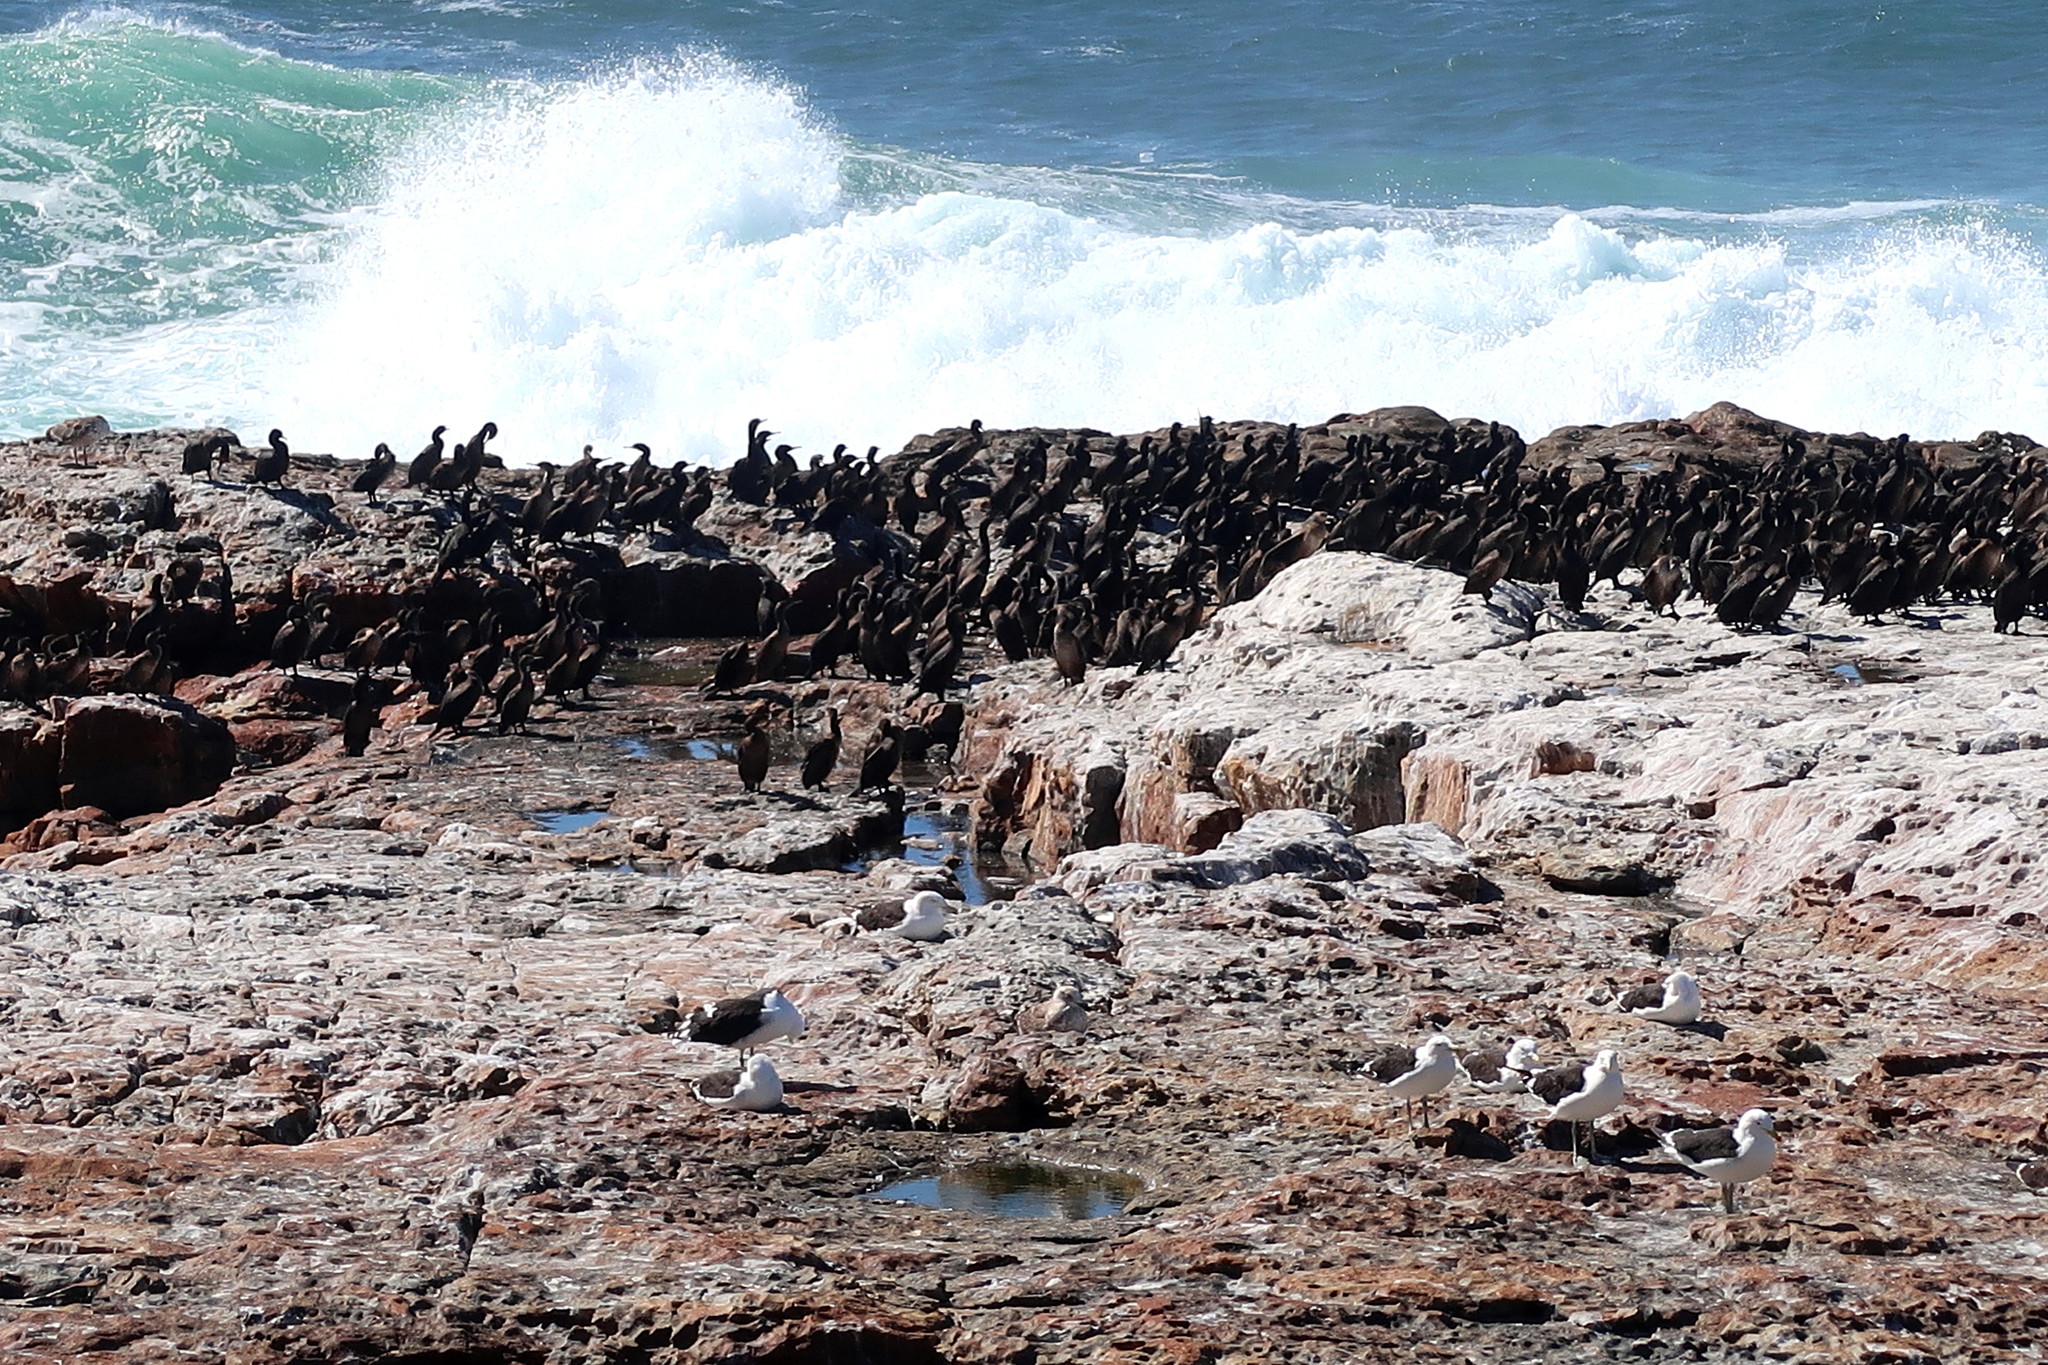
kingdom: Animalia
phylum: Chordata
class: Aves
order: Suliformes
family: Phalacrocoracidae
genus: Phalacrocorax
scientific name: Phalacrocorax capensis
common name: Cape cormorant
